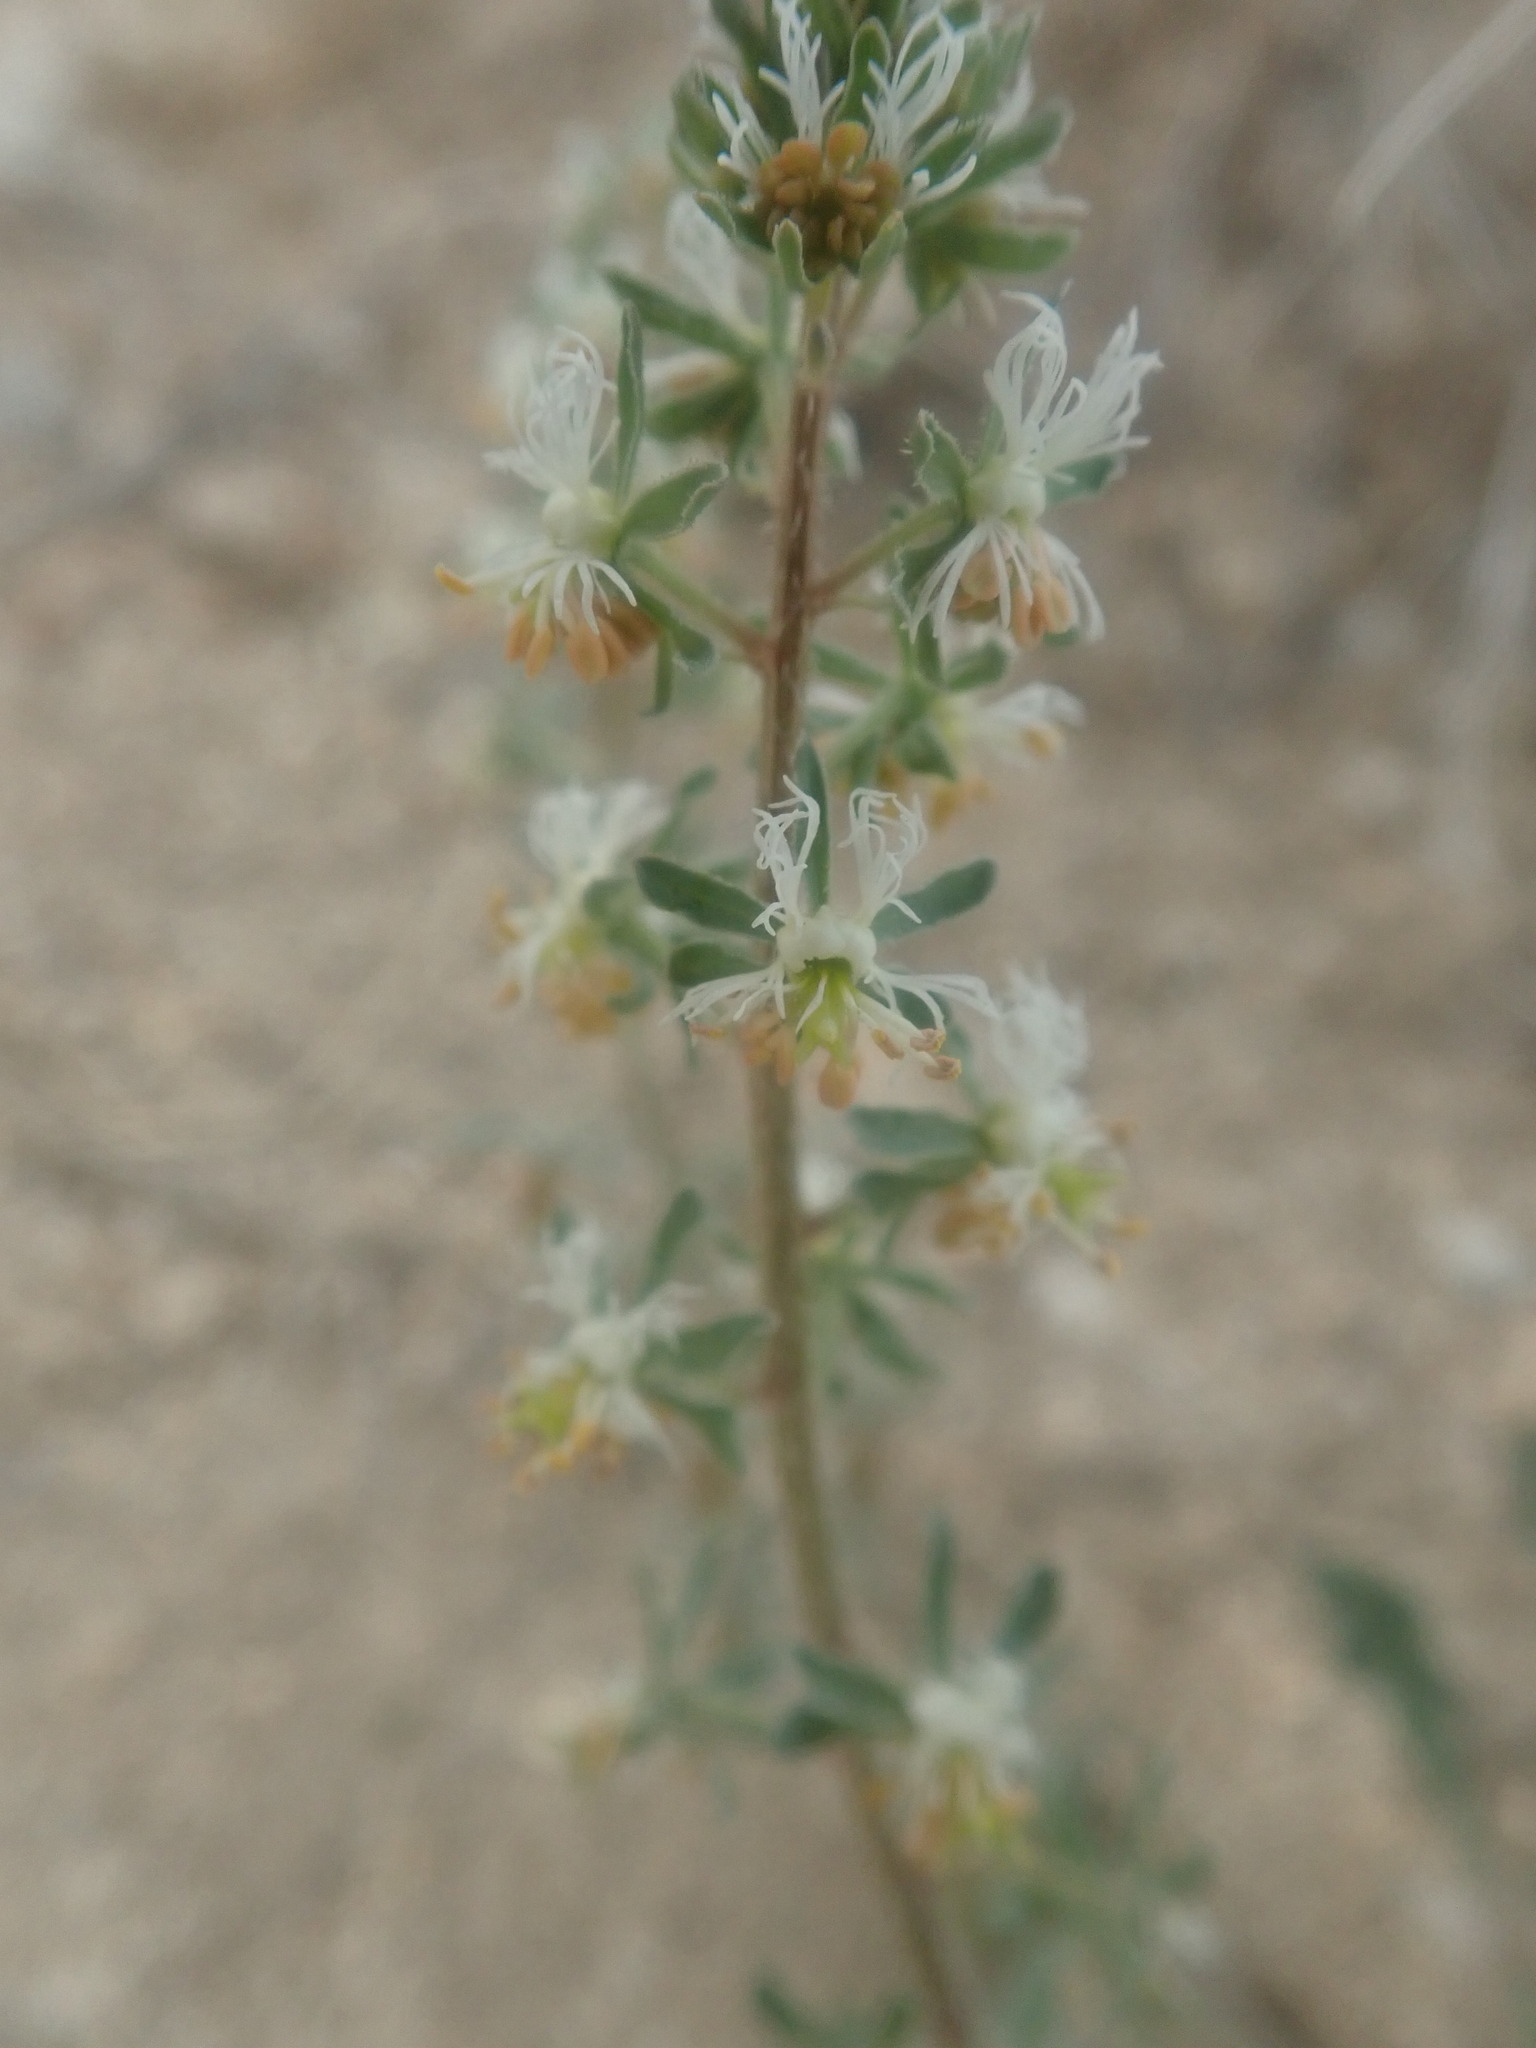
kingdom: Plantae
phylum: Tracheophyta
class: Magnoliopsida
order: Brassicales
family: Resedaceae
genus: Reseda
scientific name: Reseda phyteuma
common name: Corn mignonette
